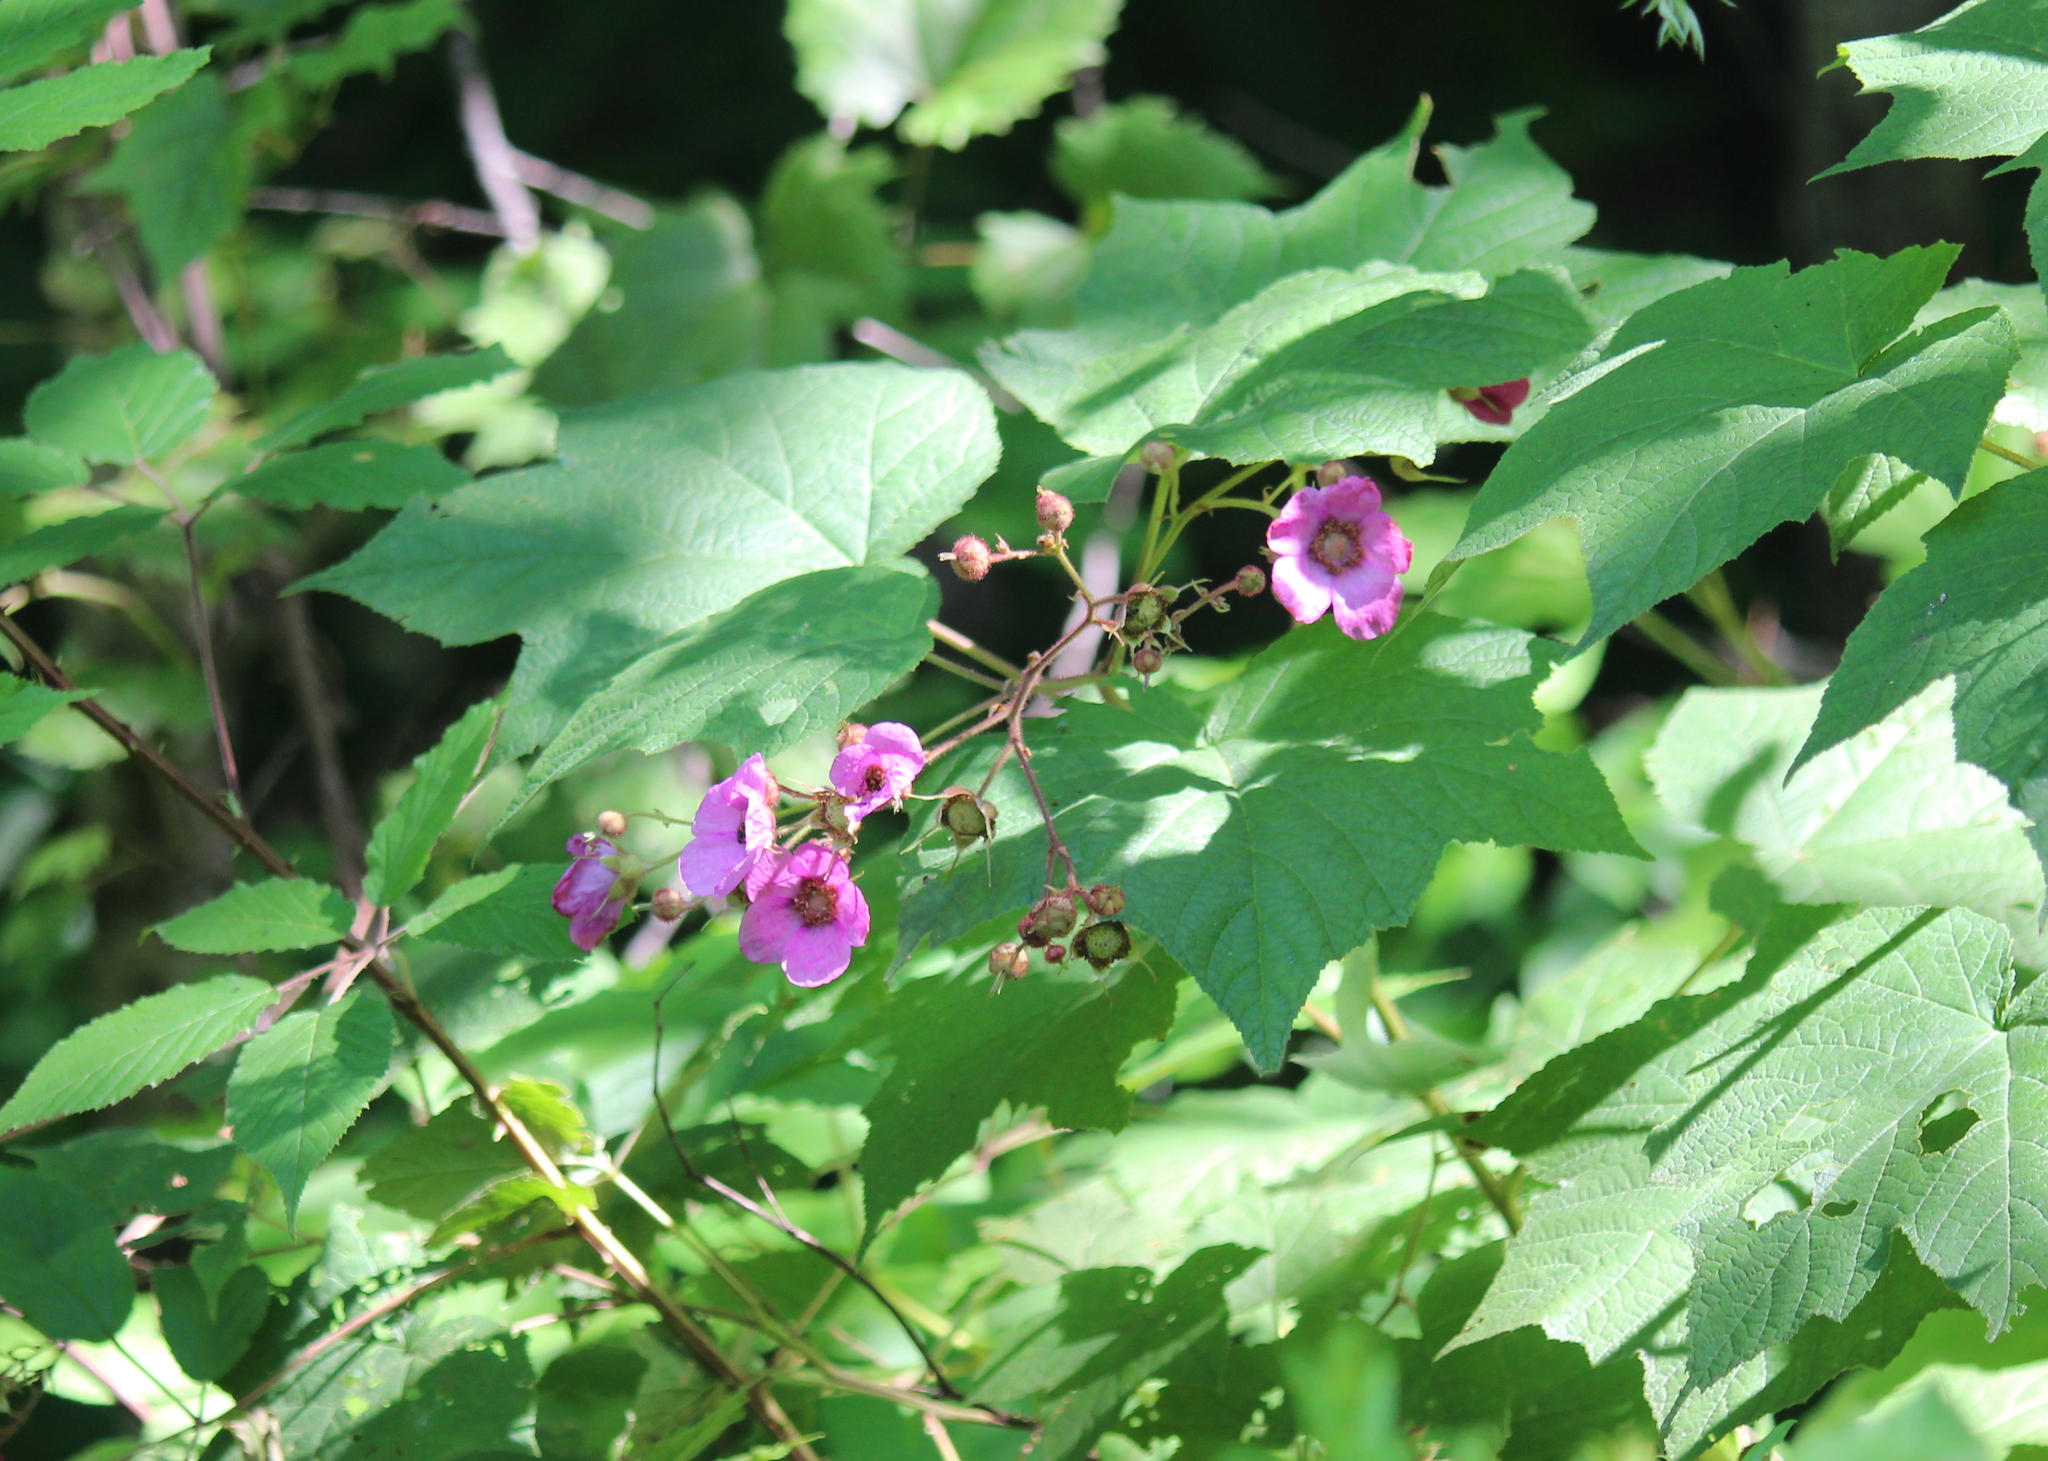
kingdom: Plantae
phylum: Tracheophyta
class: Magnoliopsida
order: Rosales
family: Rosaceae
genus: Rubus
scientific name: Rubus odoratus
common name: Purple-flowered raspberry
